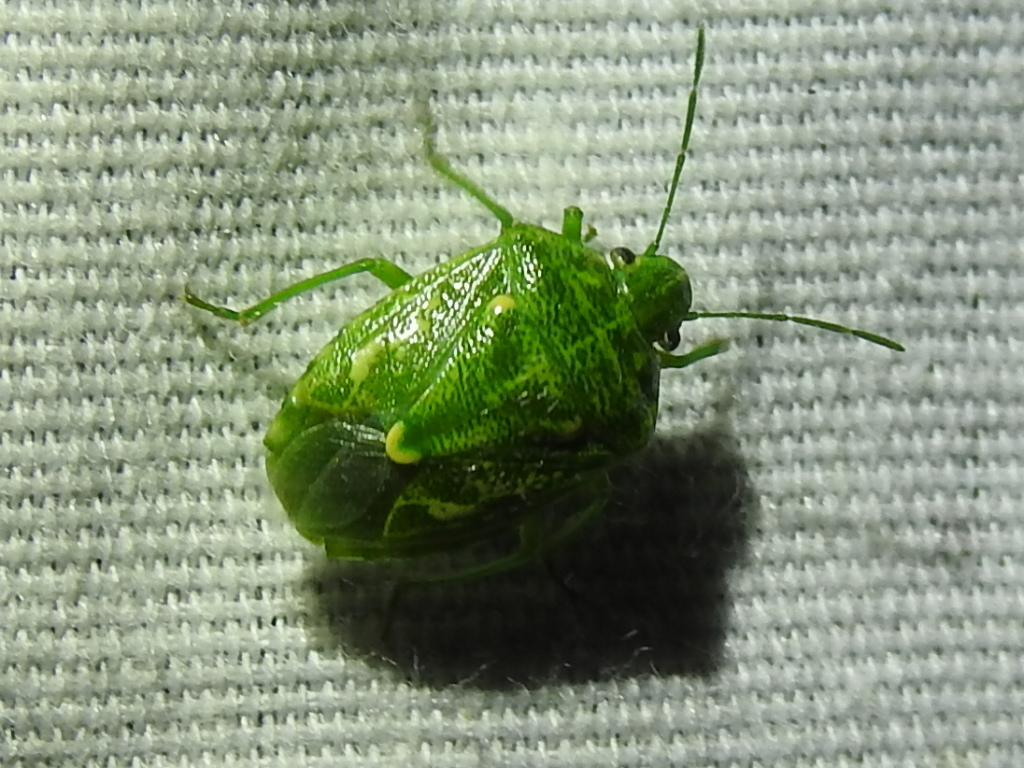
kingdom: Animalia
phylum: Arthropoda
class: Insecta
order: Hemiptera
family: Pentatomidae
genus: Banasa
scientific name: Banasa euchlora
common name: Cedar berry bug
